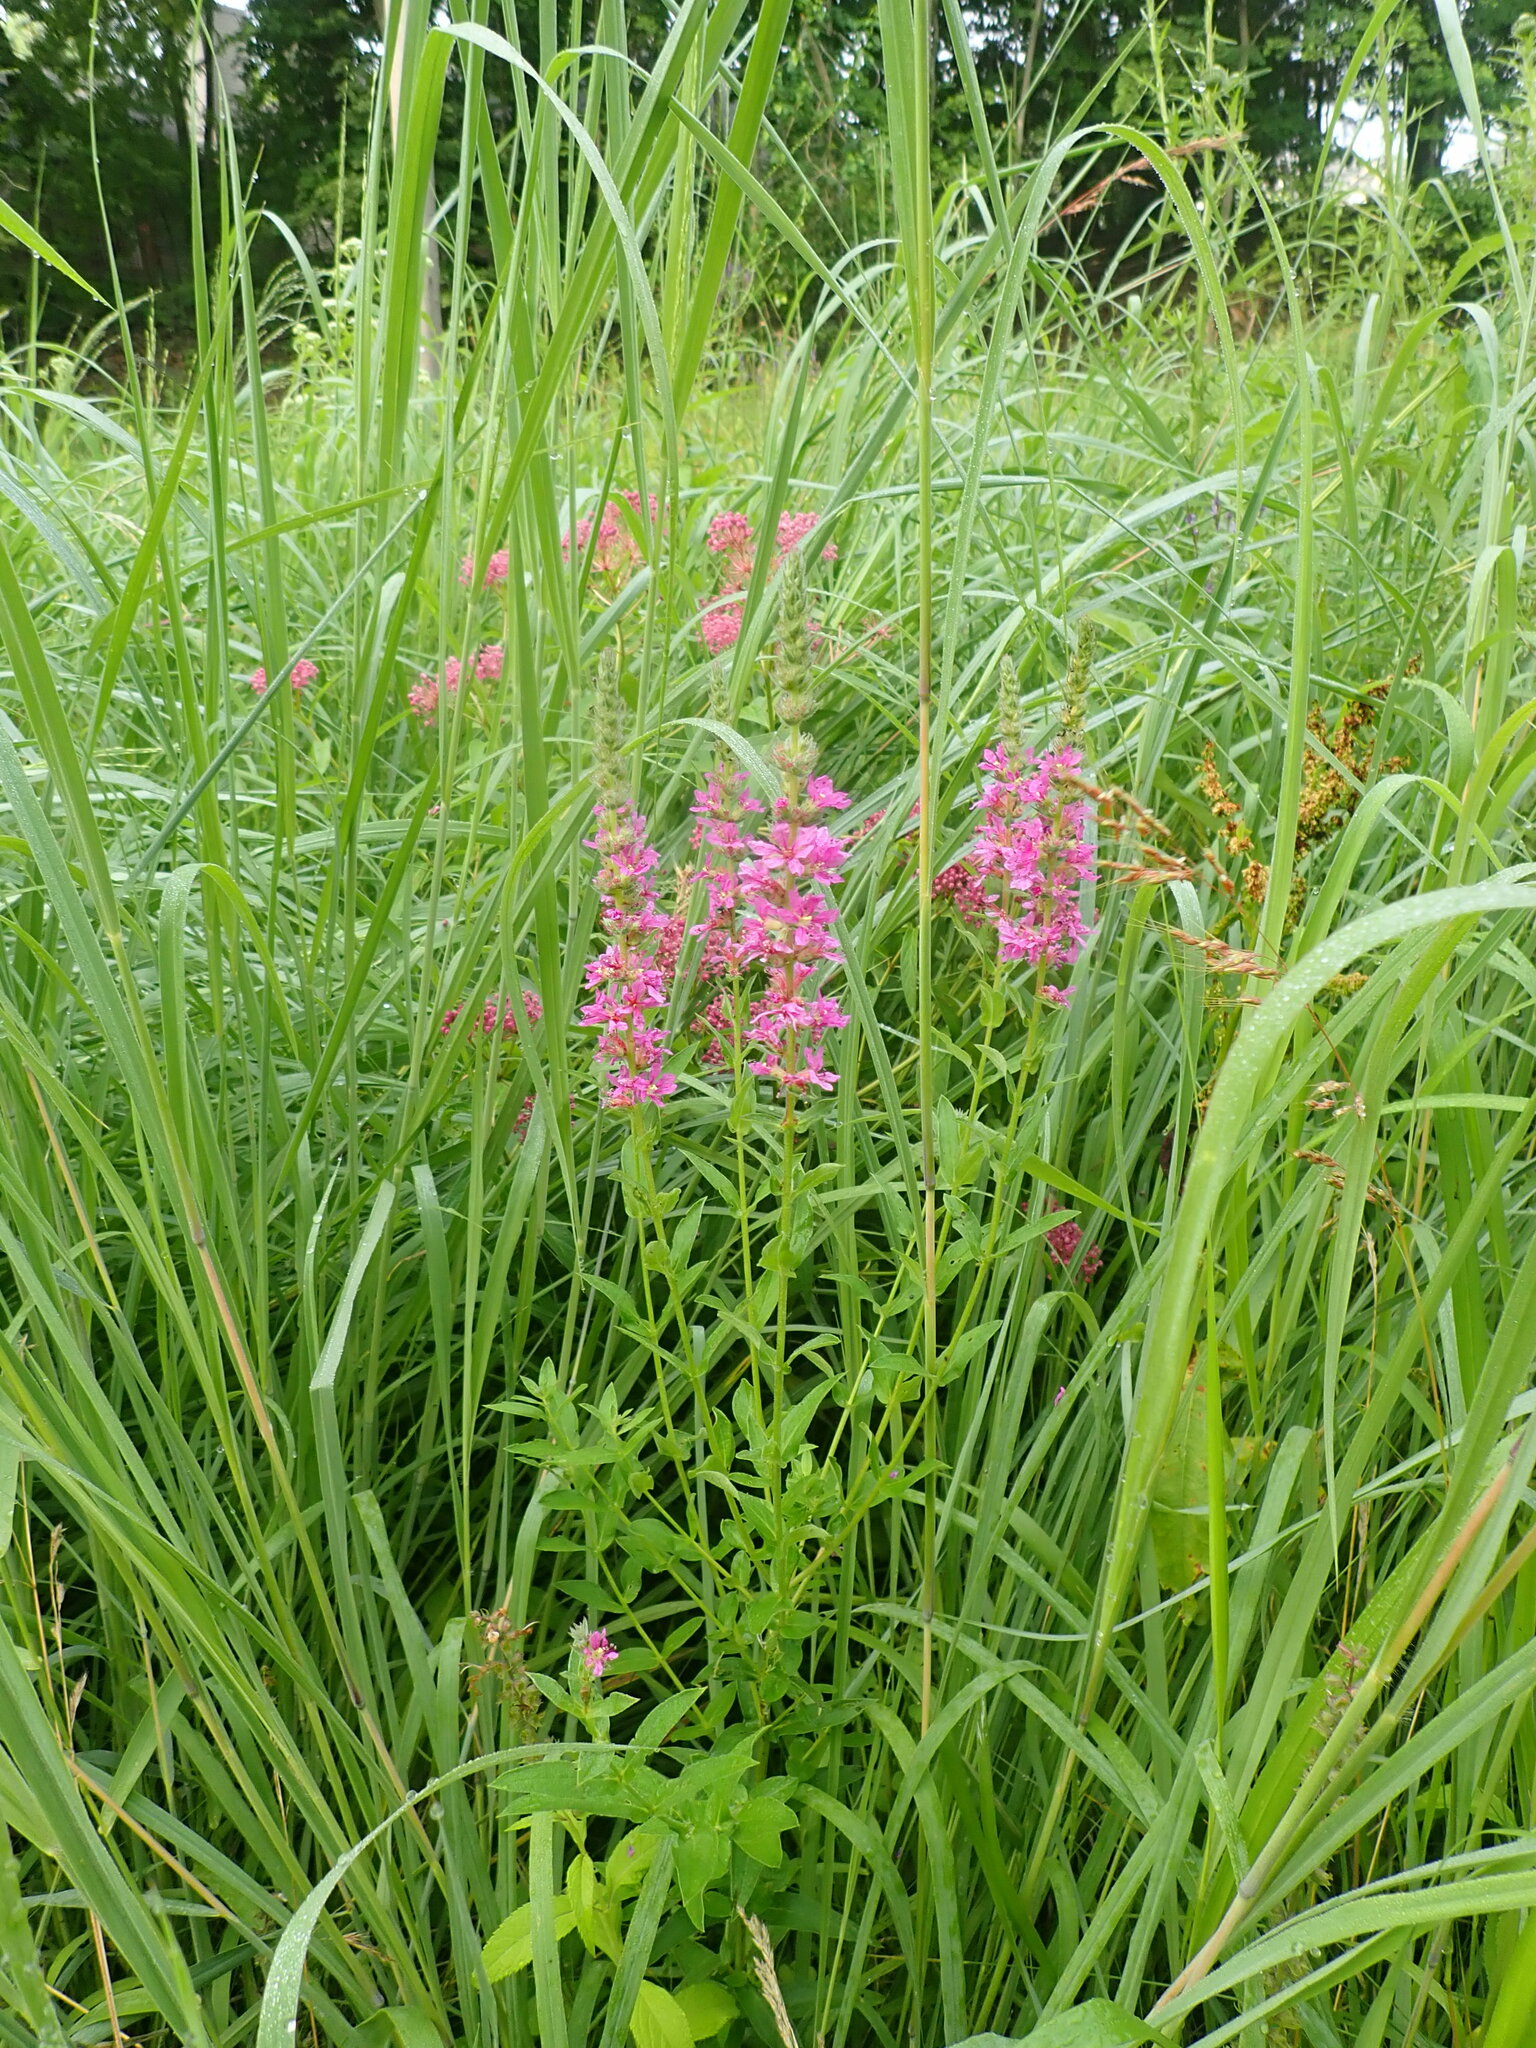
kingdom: Plantae
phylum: Tracheophyta
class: Magnoliopsida
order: Myrtales
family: Lythraceae
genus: Lythrum
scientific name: Lythrum salicaria
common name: Purple loosestrife
